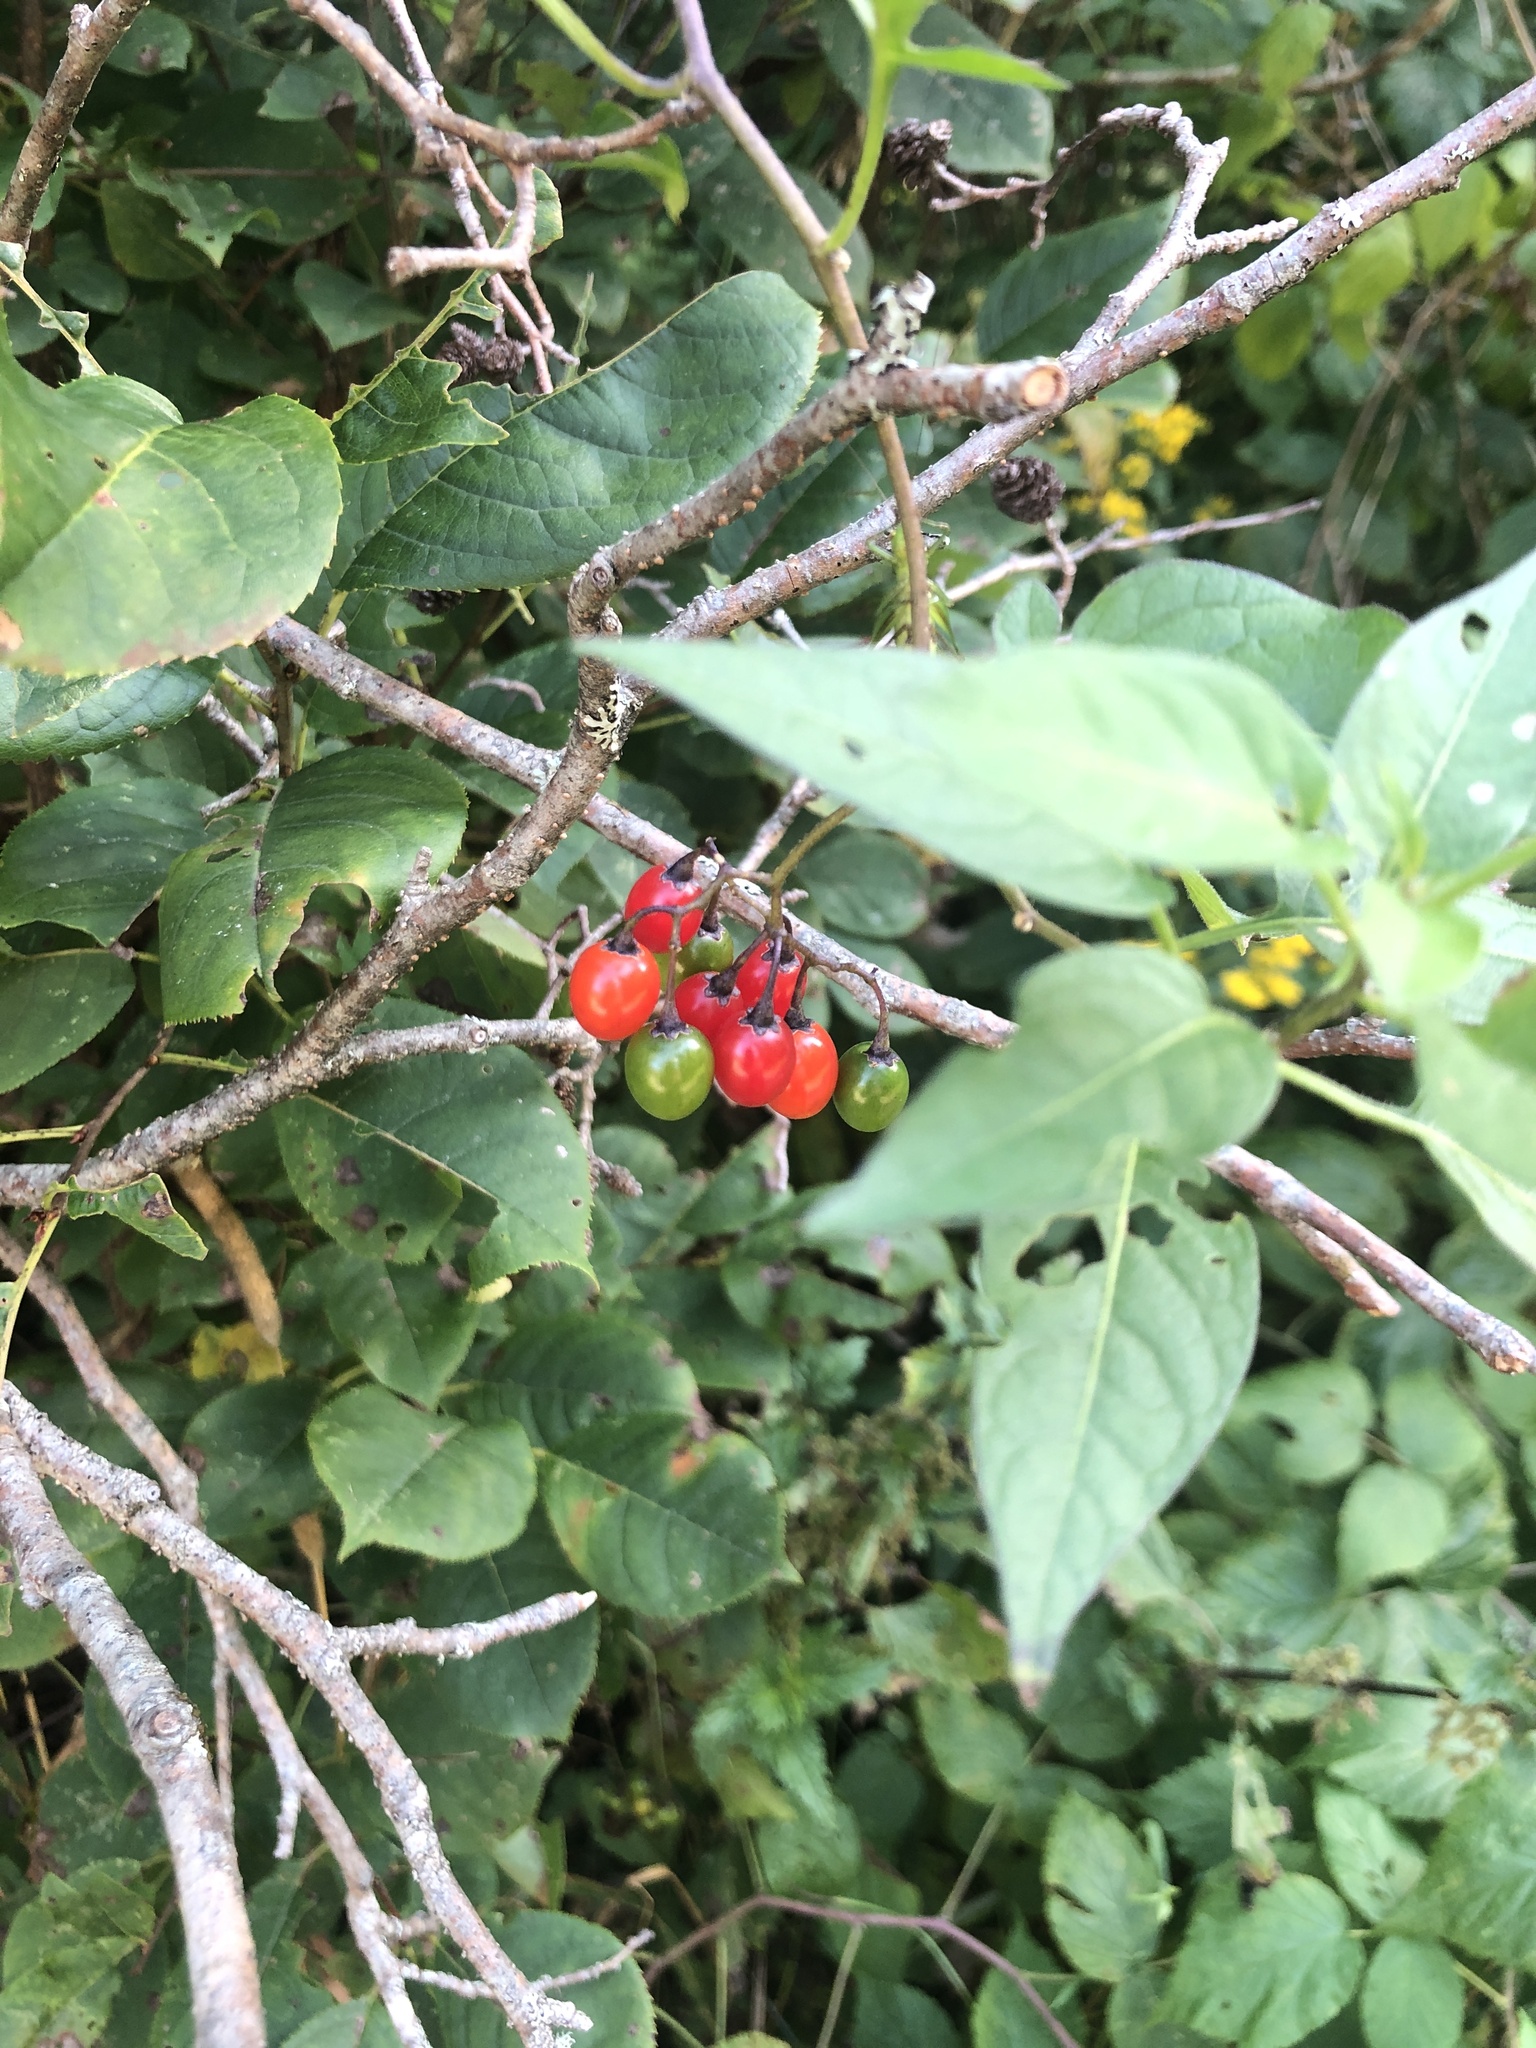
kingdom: Plantae
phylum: Tracheophyta
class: Magnoliopsida
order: Solanales
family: Solanaceae
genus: Solanum
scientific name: Solanum dulcamara
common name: Climbing nightshade
